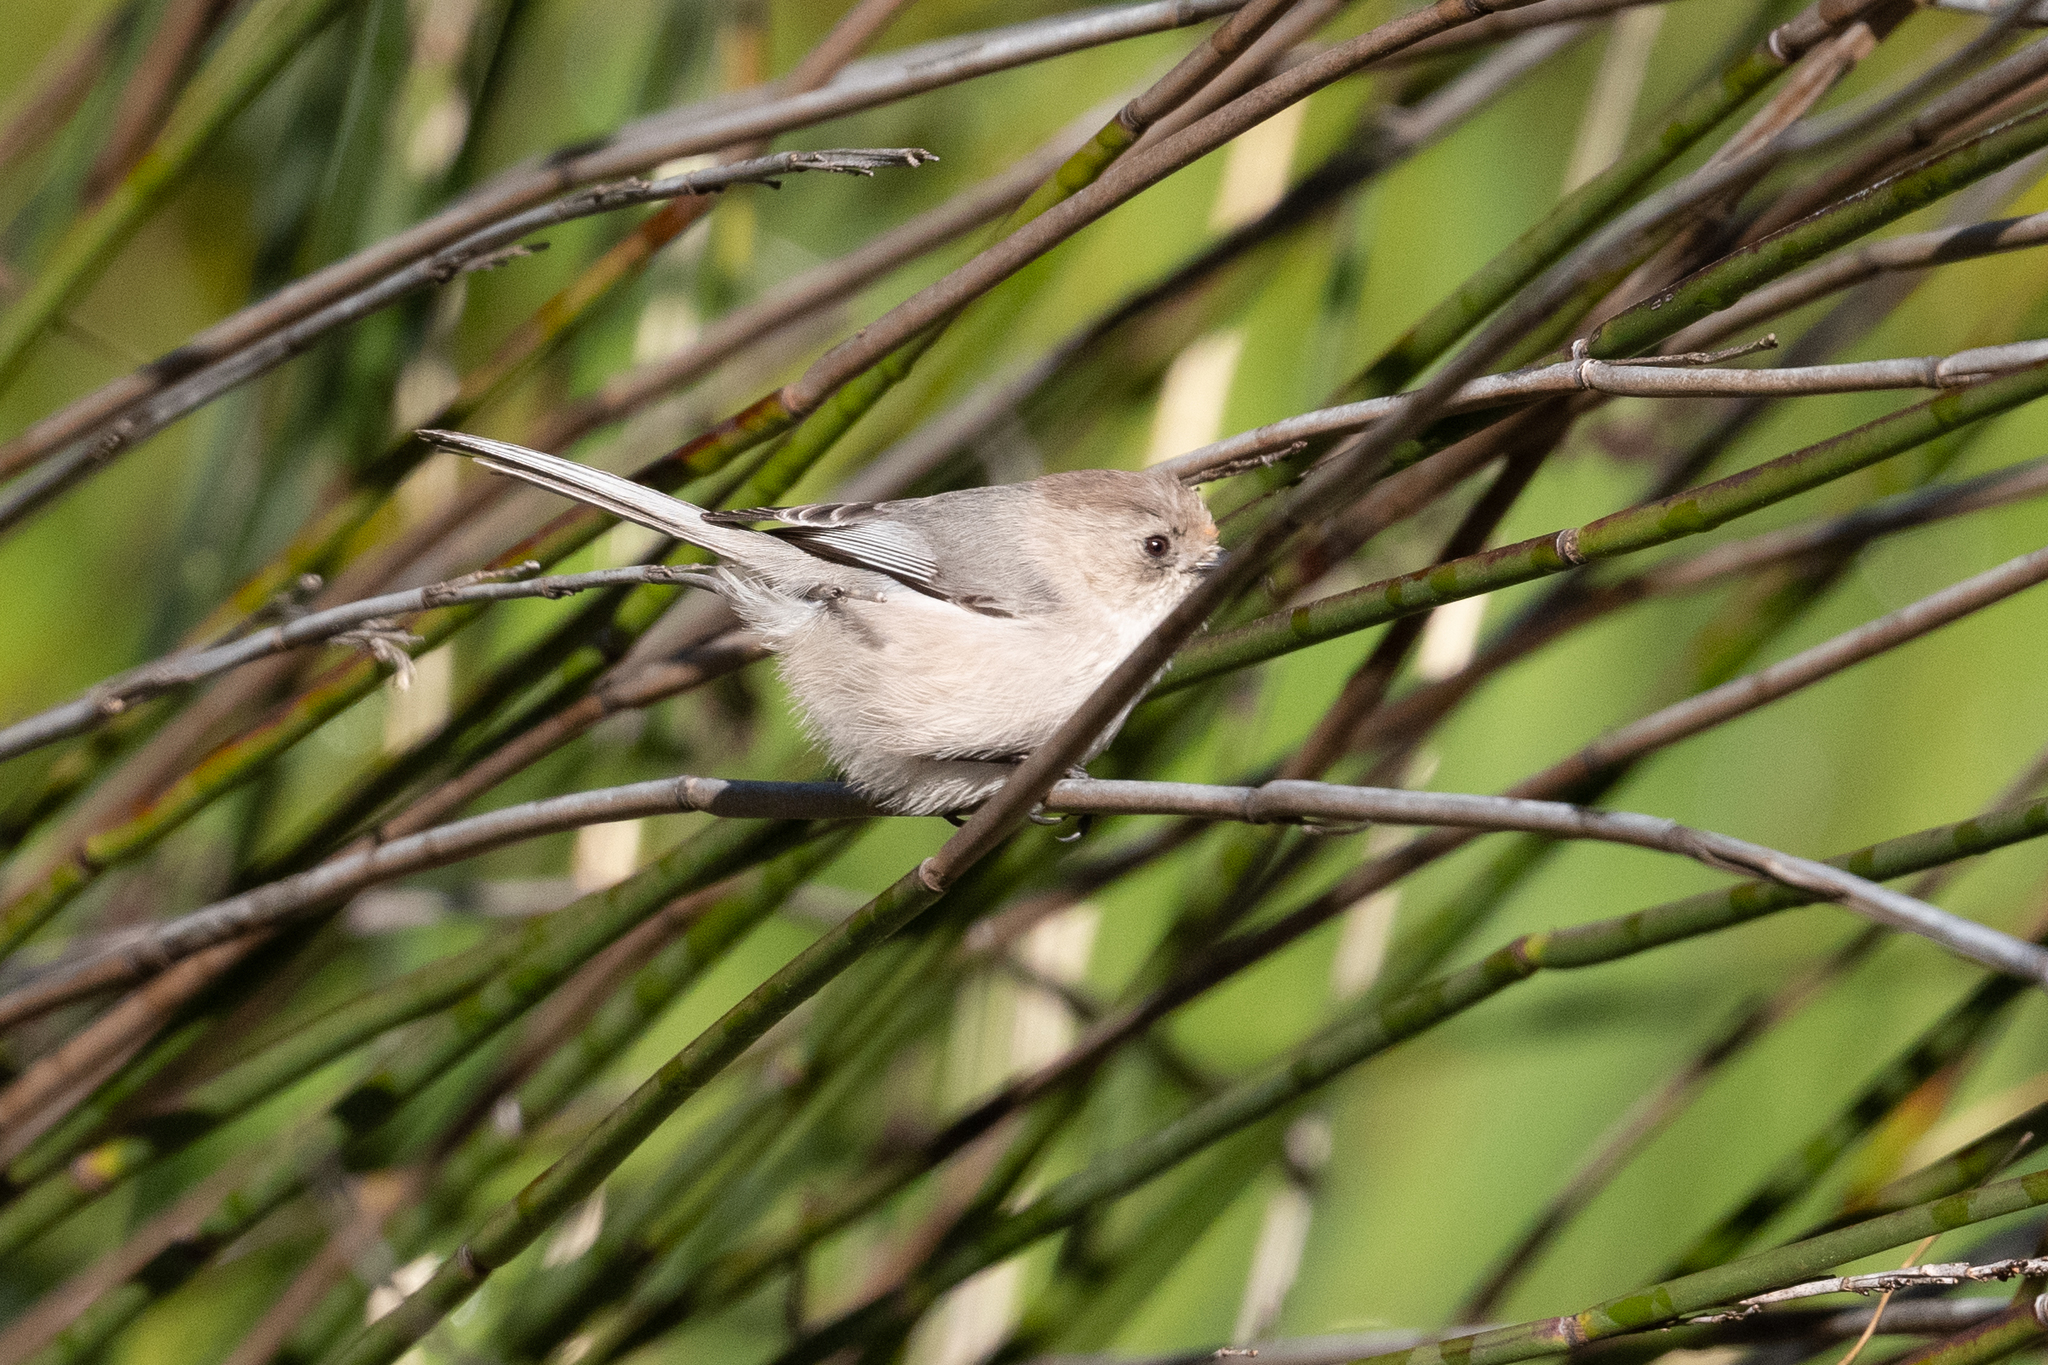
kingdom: Animalia
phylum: Chordata
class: Aves
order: Passeriformes
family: Aegithalidae
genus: Psaltriparus
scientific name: Psaltriparus minimus
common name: American bushtit
